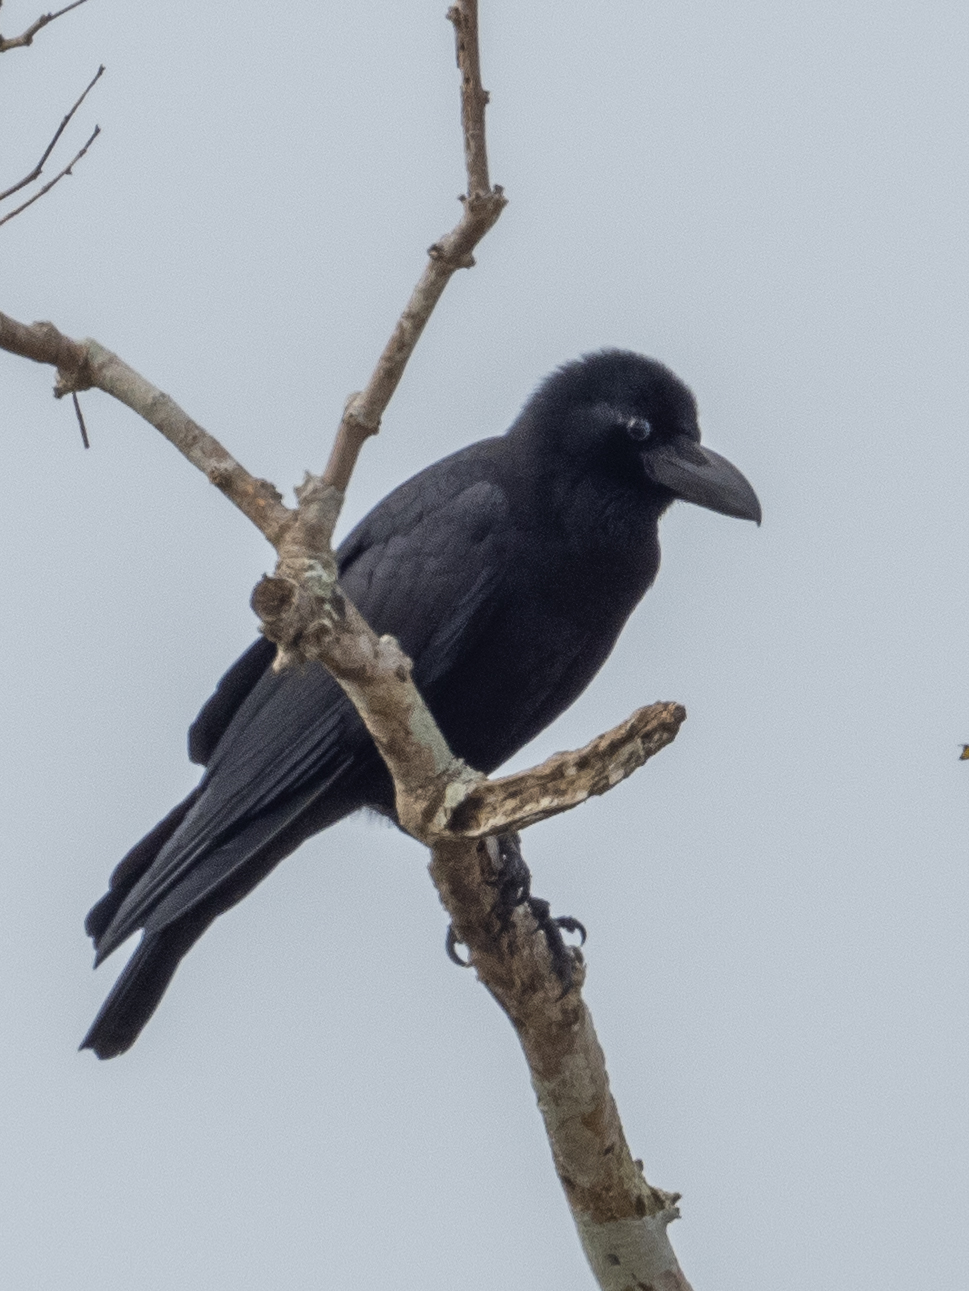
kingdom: Animalia
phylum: Chordata
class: Aves
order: Passeriformes
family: Corvidae
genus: Corvus
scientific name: Corvus macrorhynchos
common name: Large-billed crow
